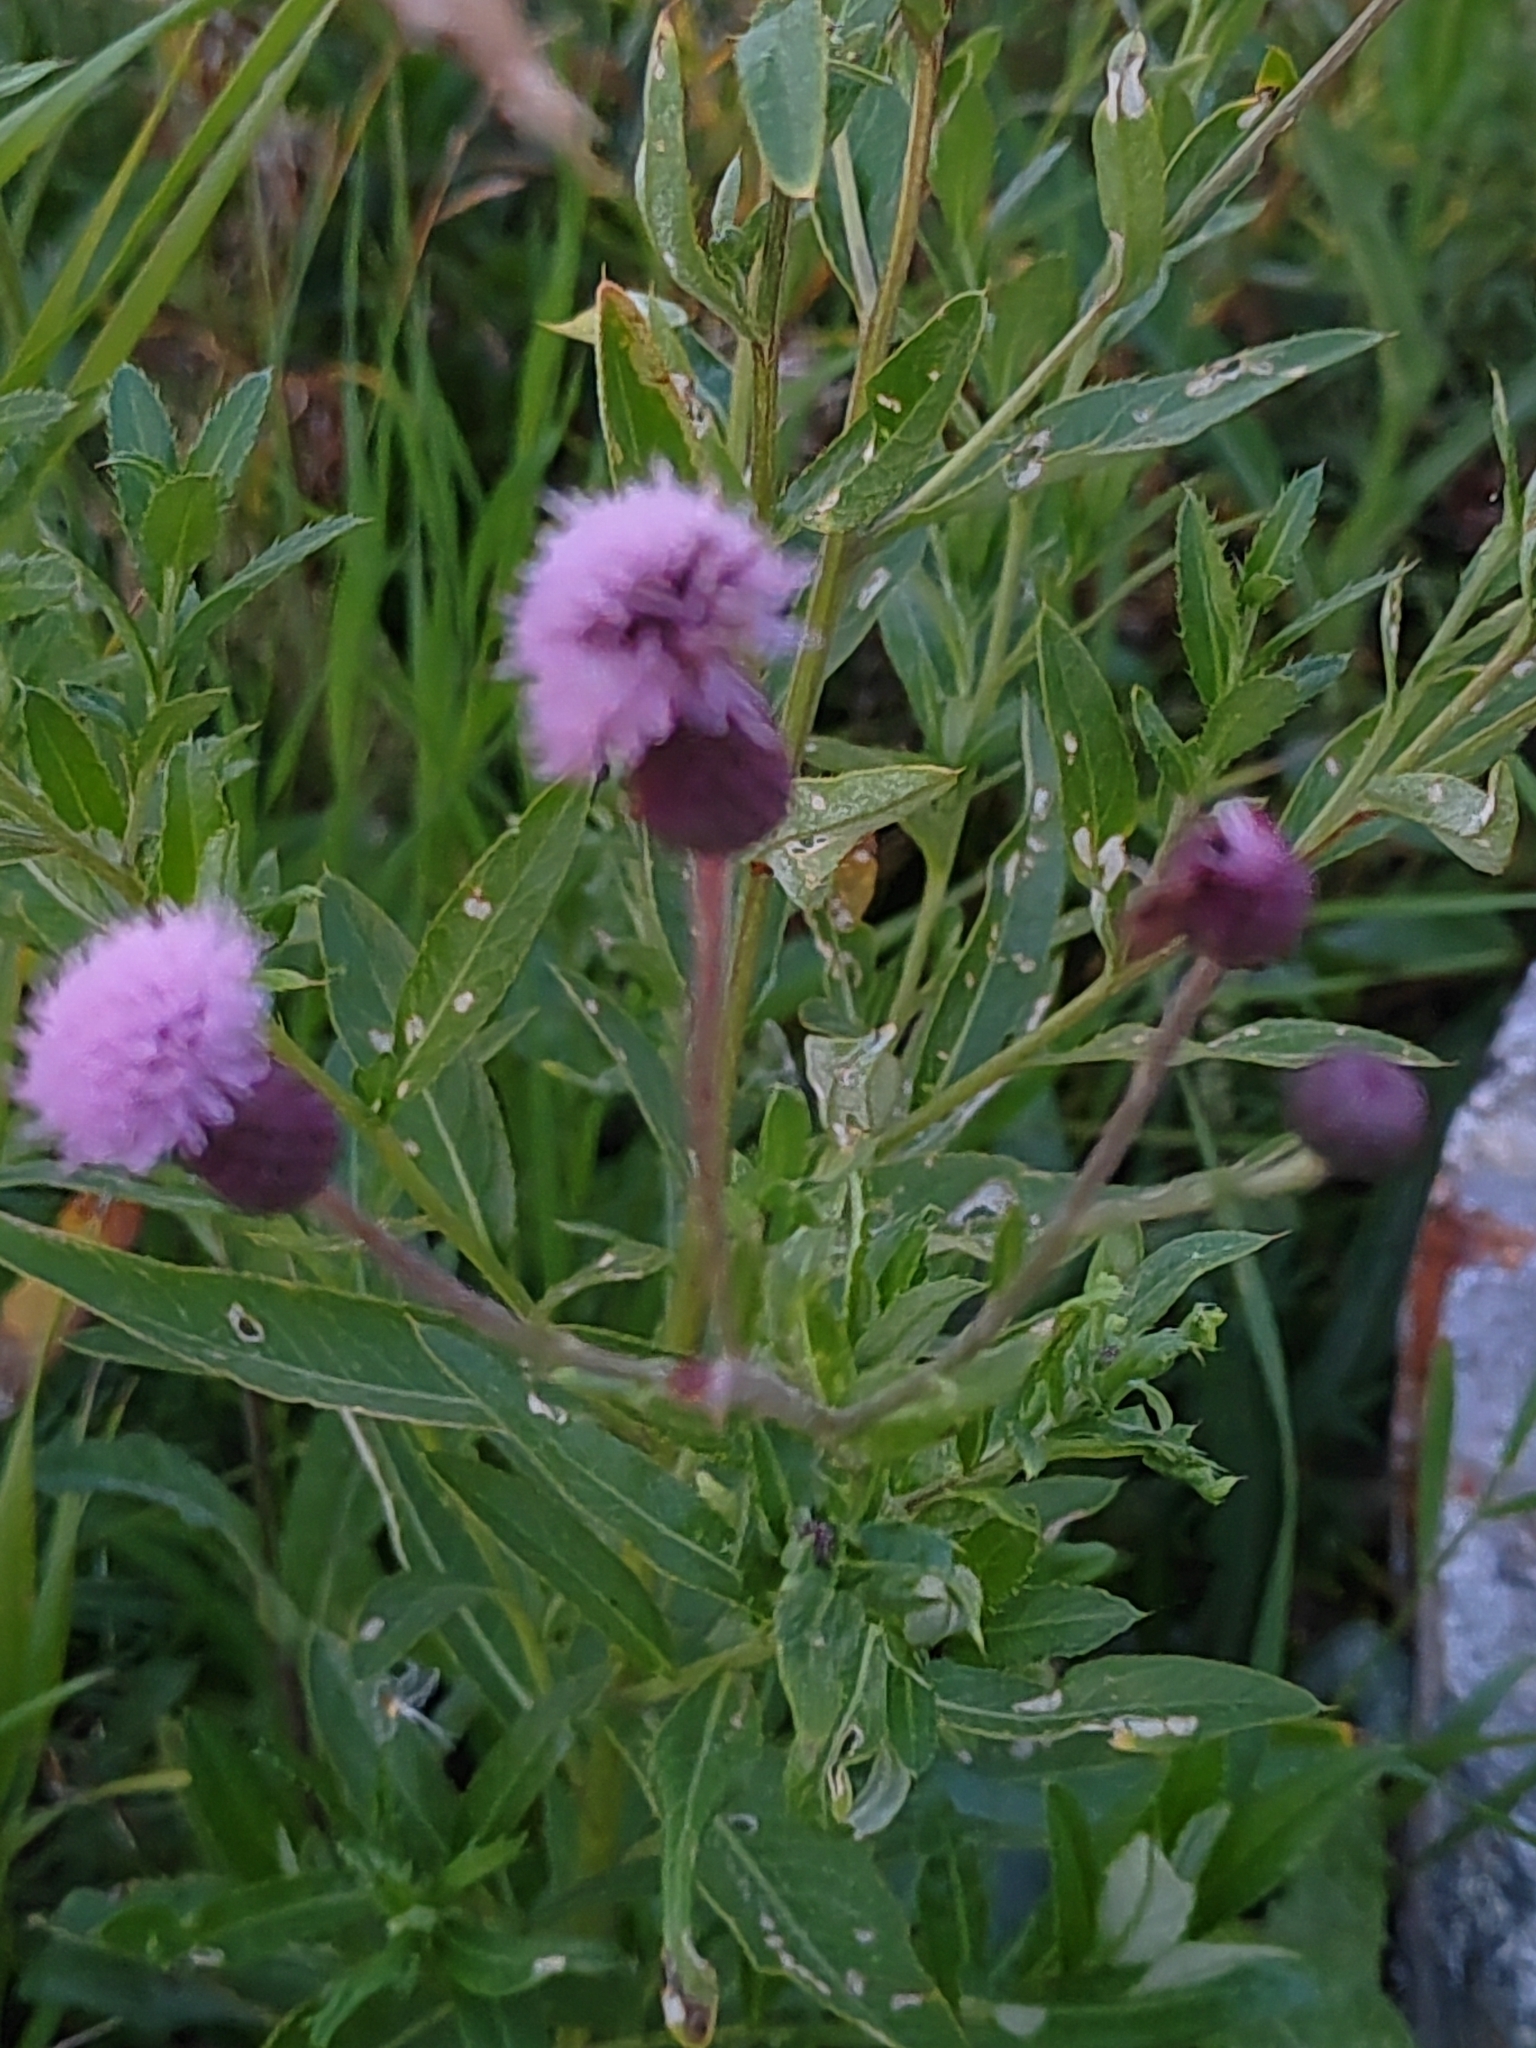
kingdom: Plantae
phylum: Tracheophyta
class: Magnoliopsida
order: Asterales
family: Asteraceae
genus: Cirsium
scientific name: Cirsium arvense
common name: Creeping thistle
